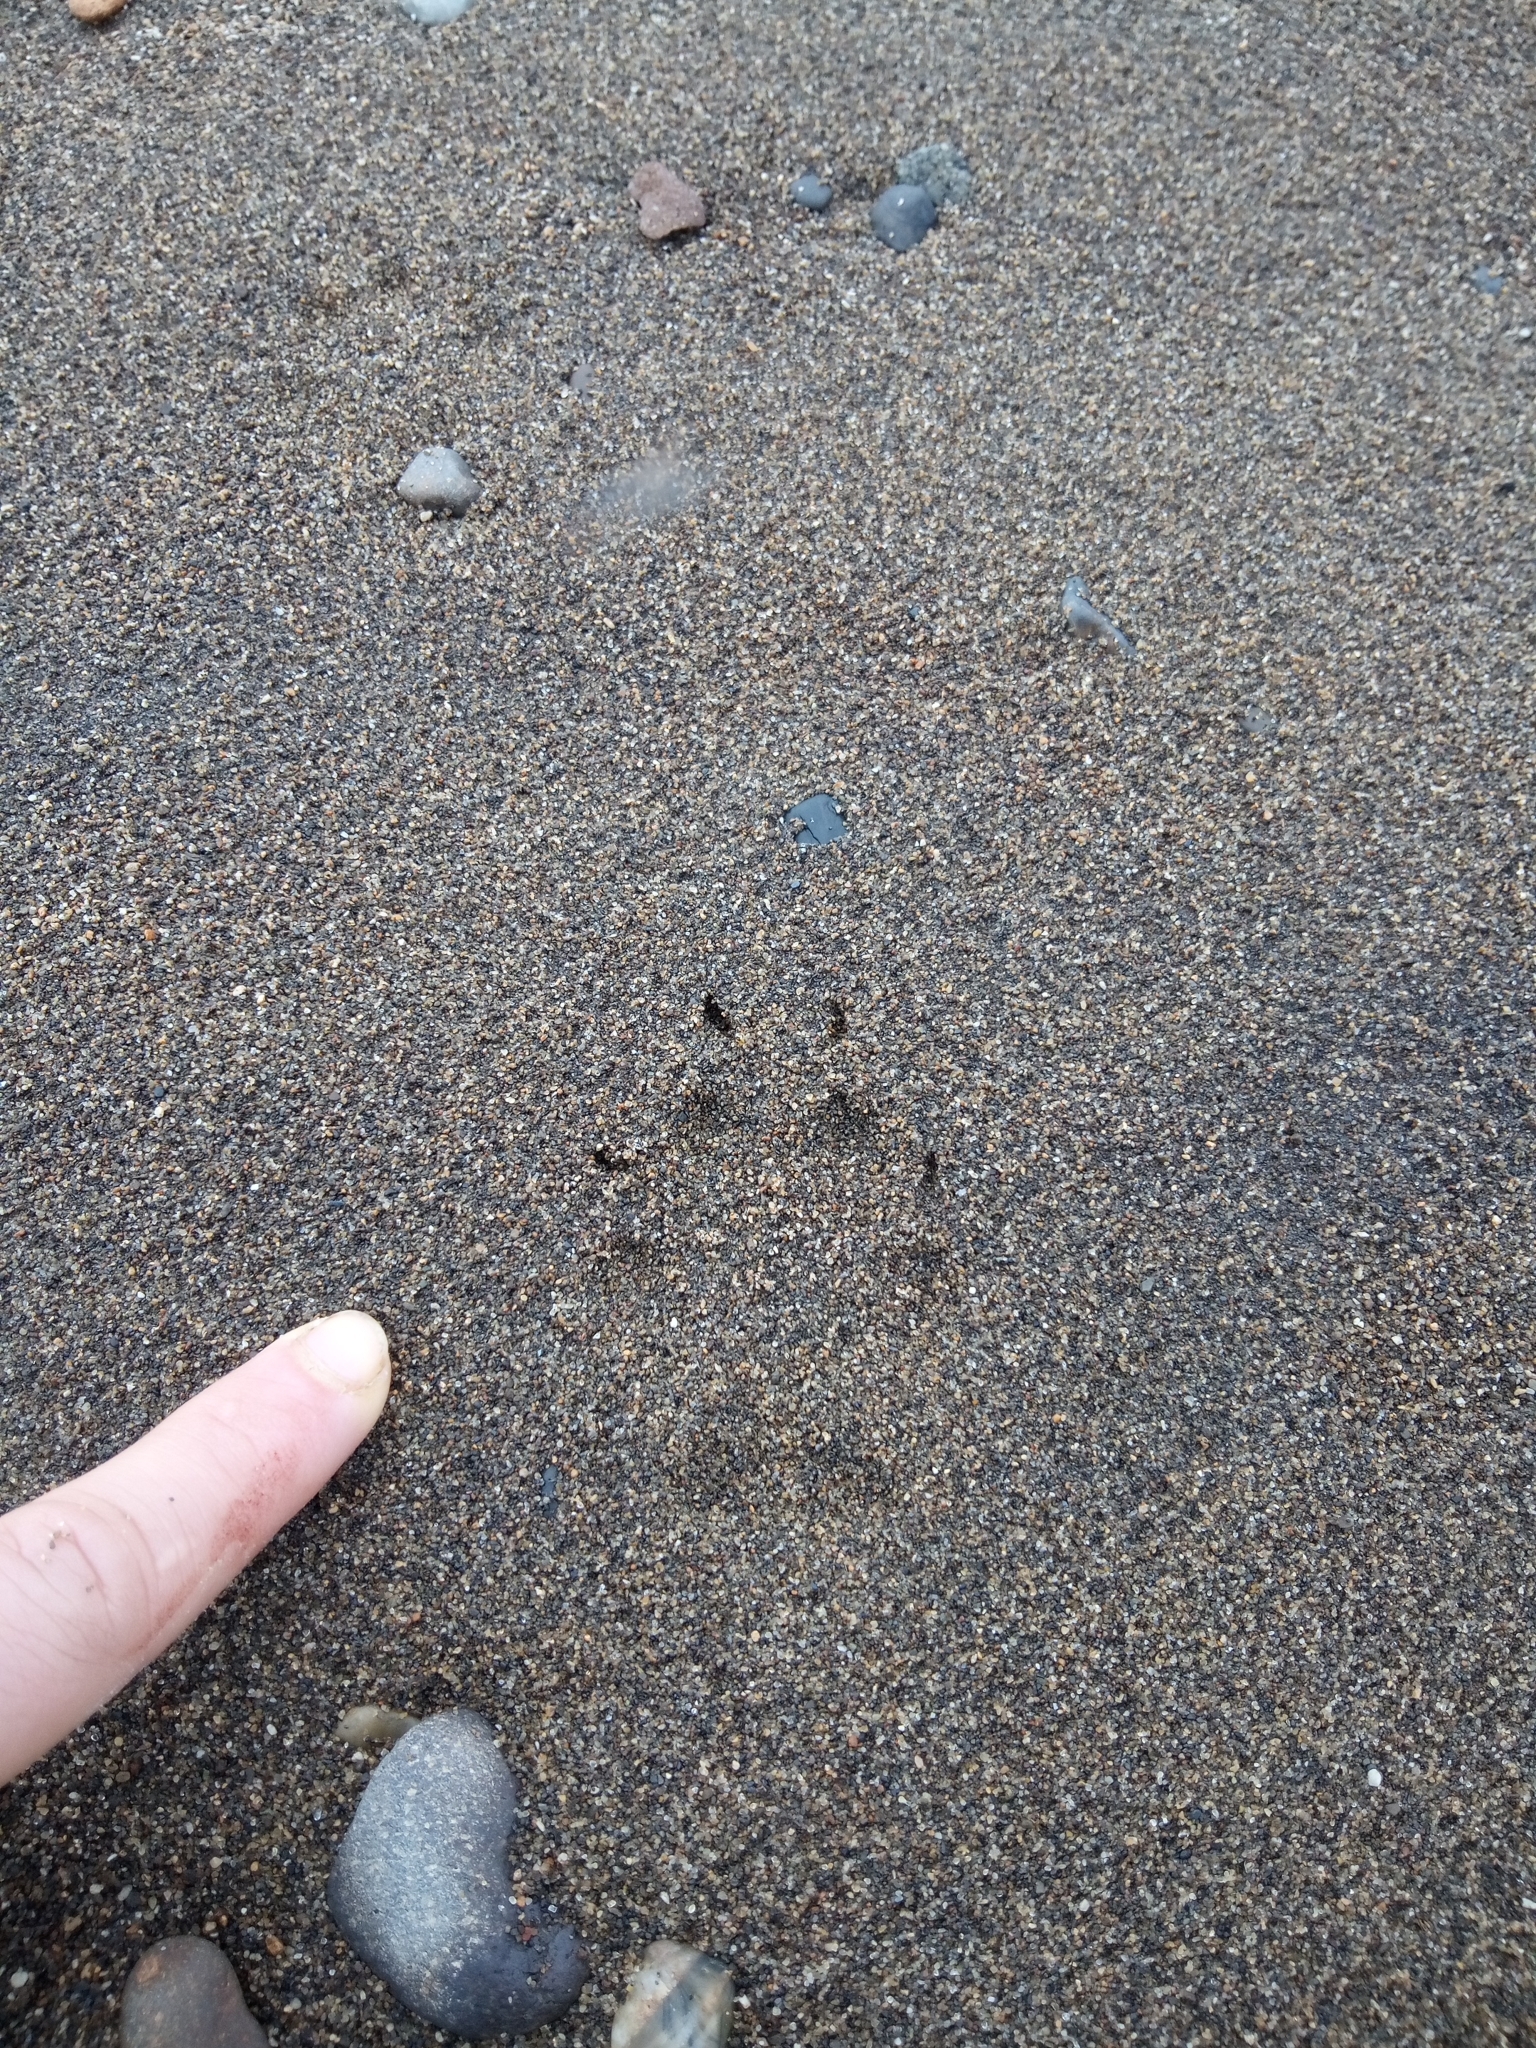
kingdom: Animalia
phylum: Chordata
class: Mammalia
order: Carnivora
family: Canidae
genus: Vulpes
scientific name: Vulpes vulpes
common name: Red fox
